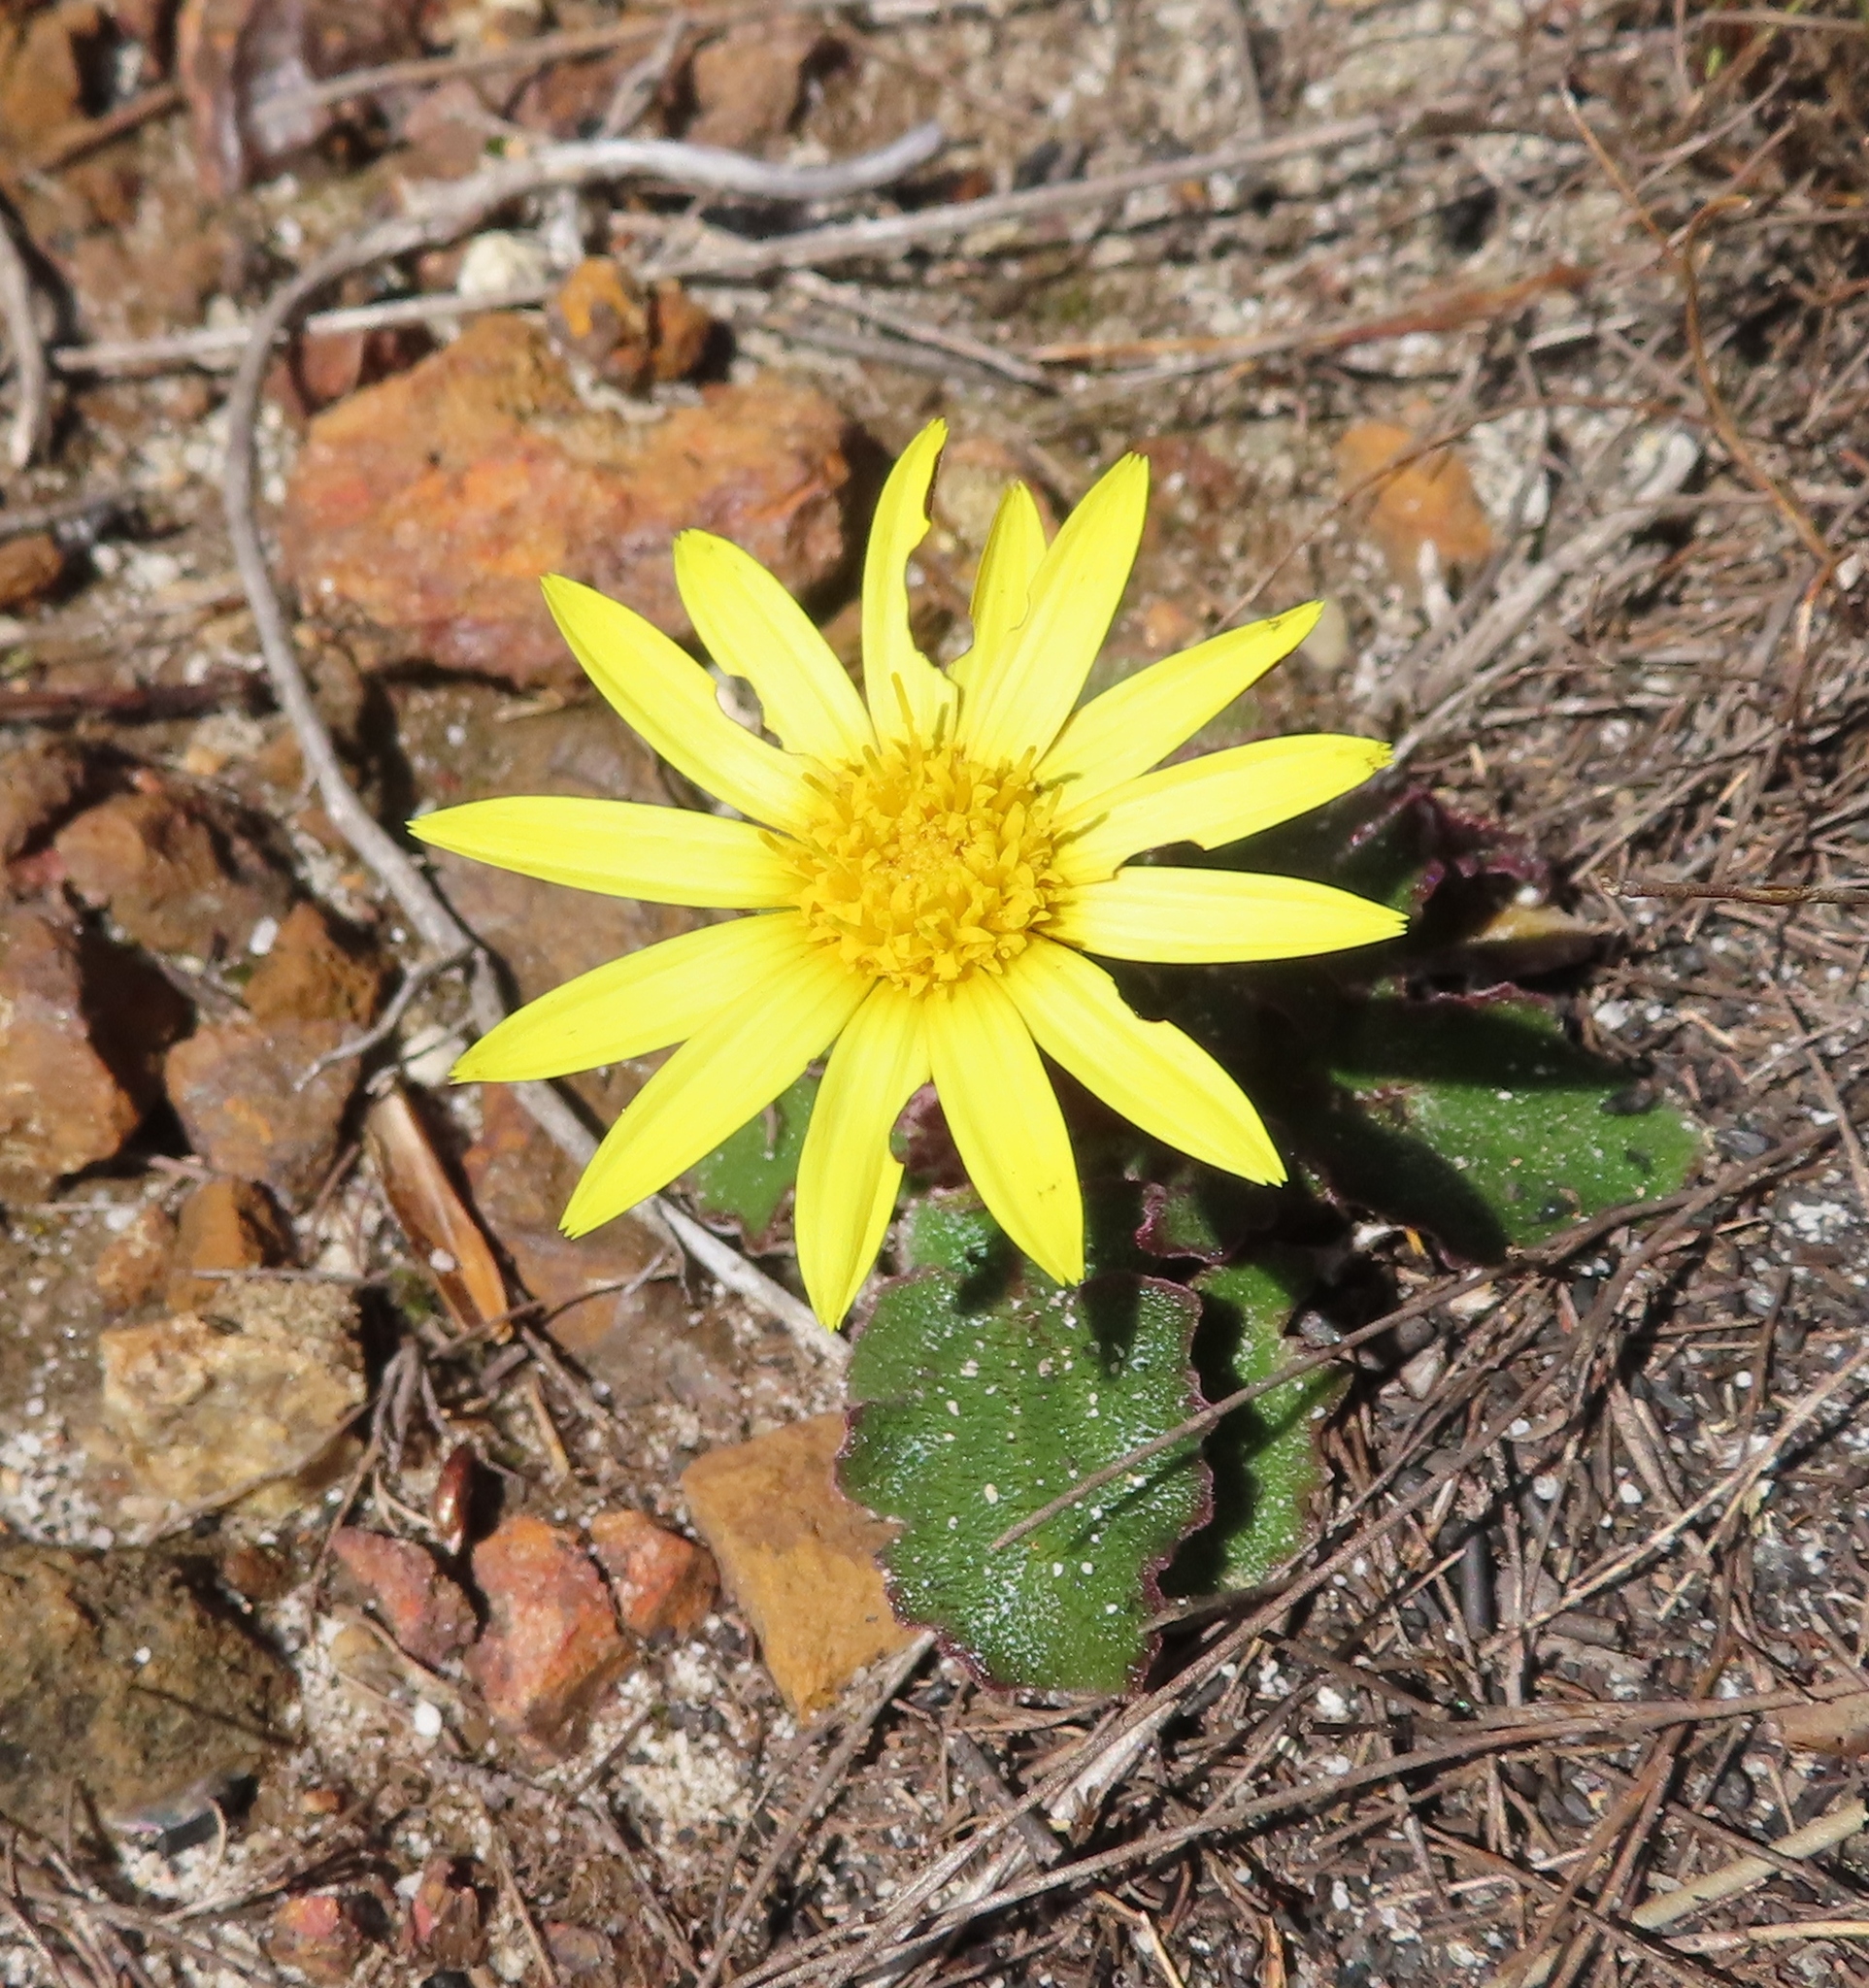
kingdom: Plantae
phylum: Tracheophyta
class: Magnoliopsida
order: Asterales
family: Asteraceae
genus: Haplocarpha
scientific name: Haplocarpha lanata
